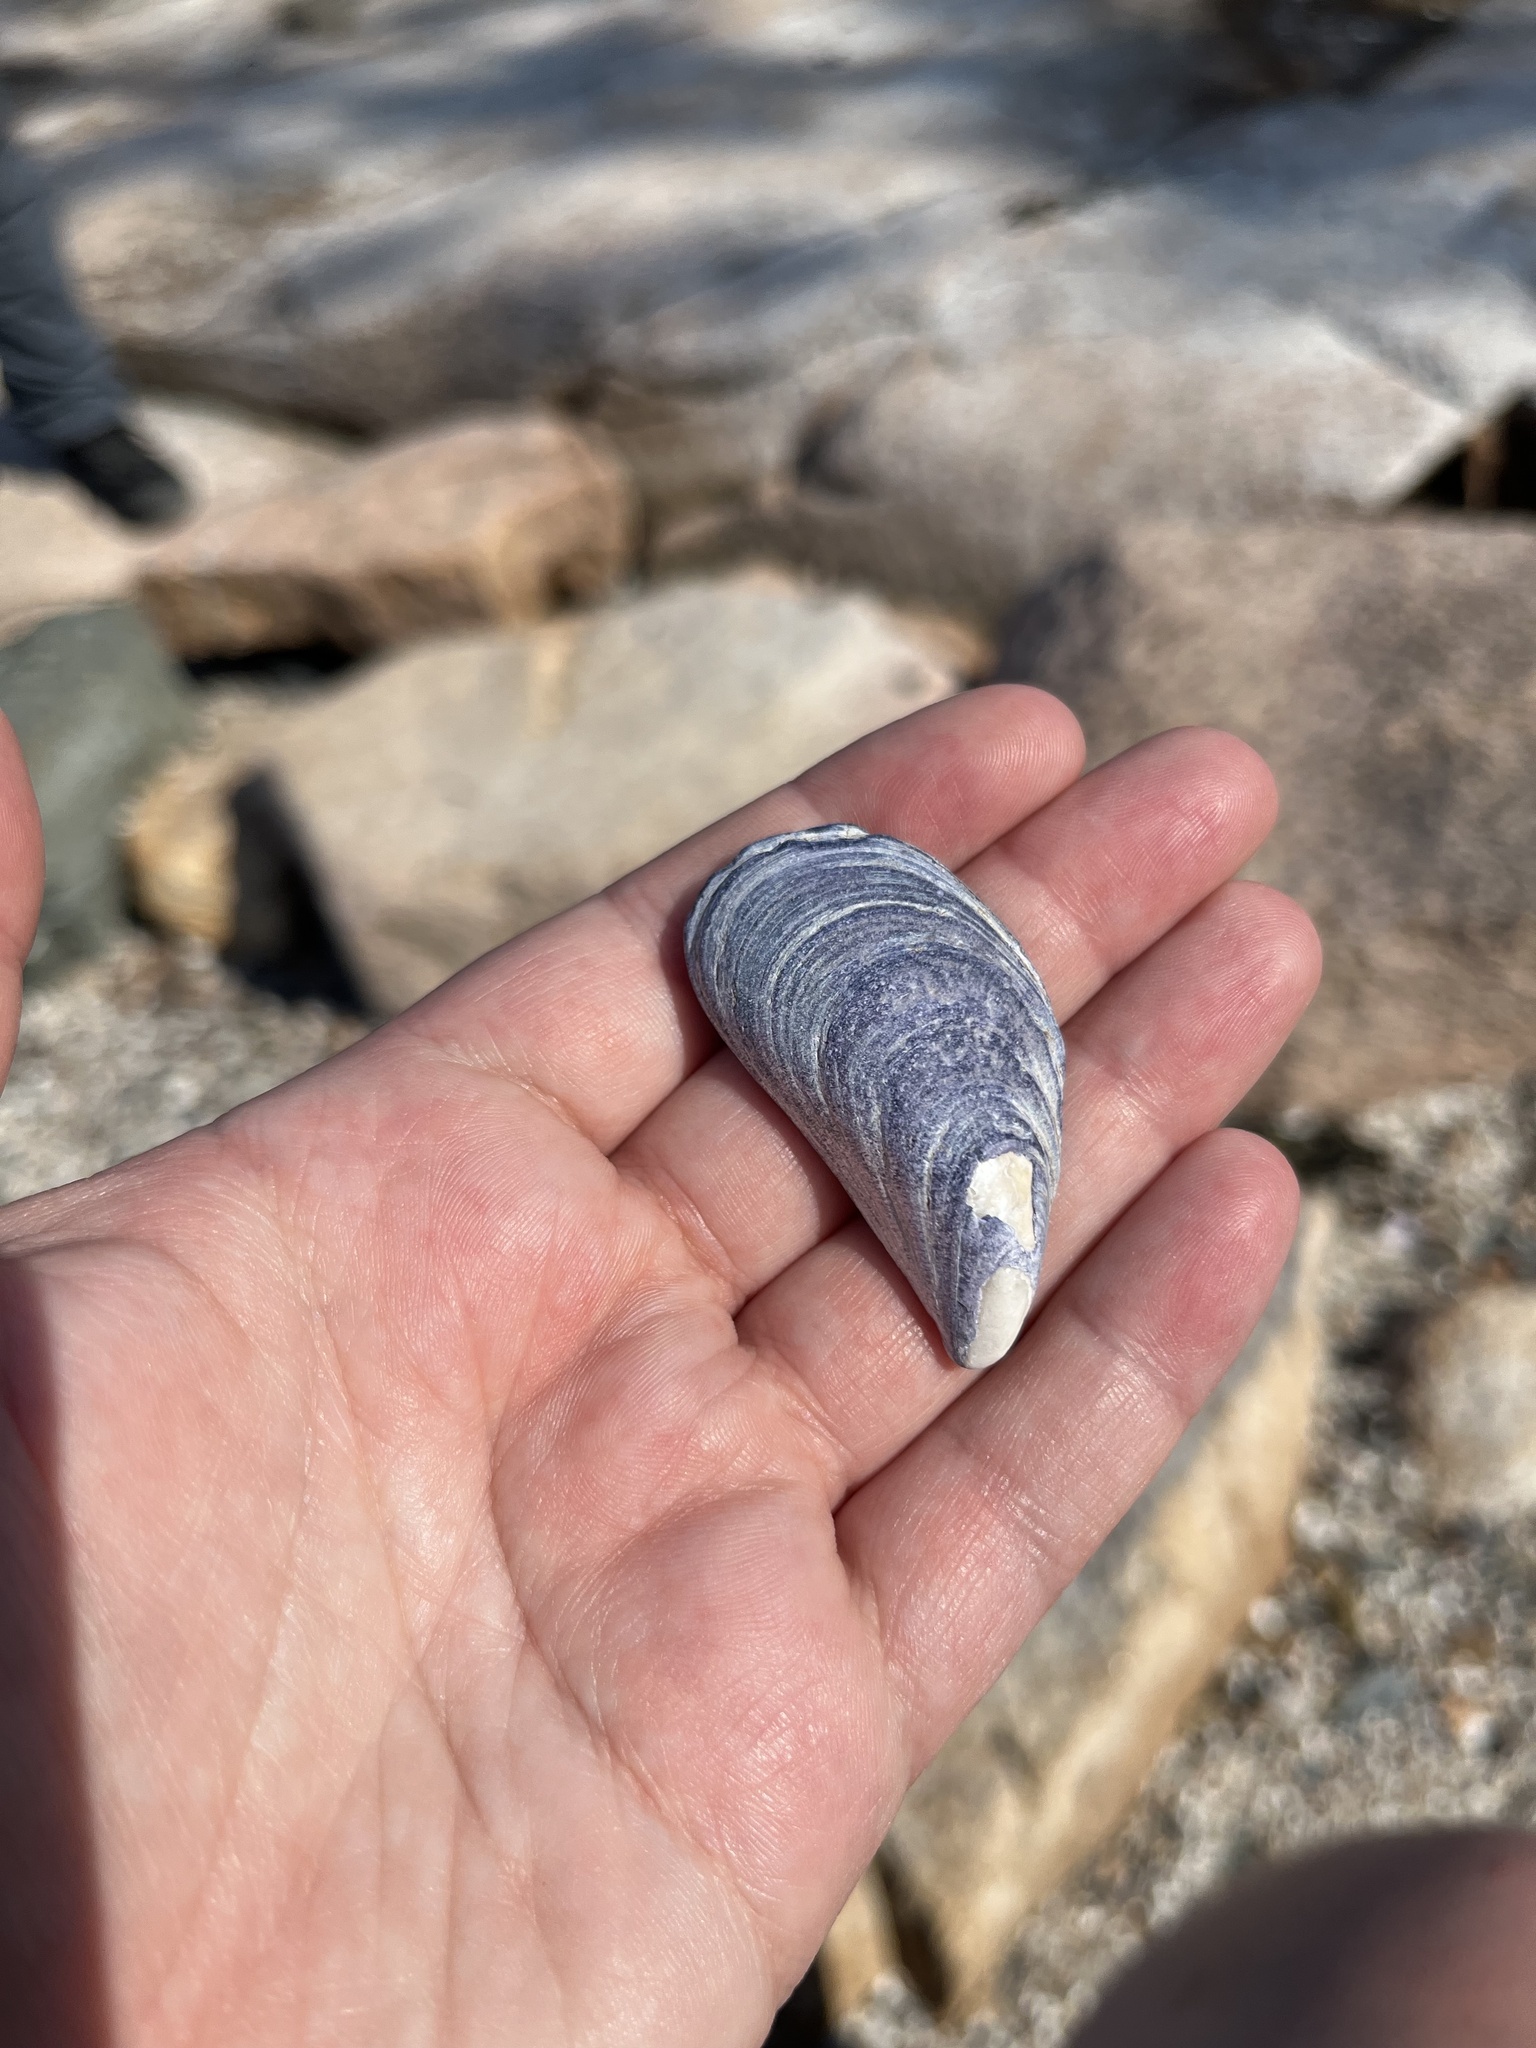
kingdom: Animalia
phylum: Mollusca
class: Bivalvia
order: Mytilida
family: Mytilidae
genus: Mytilus
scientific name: Mytilus edulis
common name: Blue mussel
